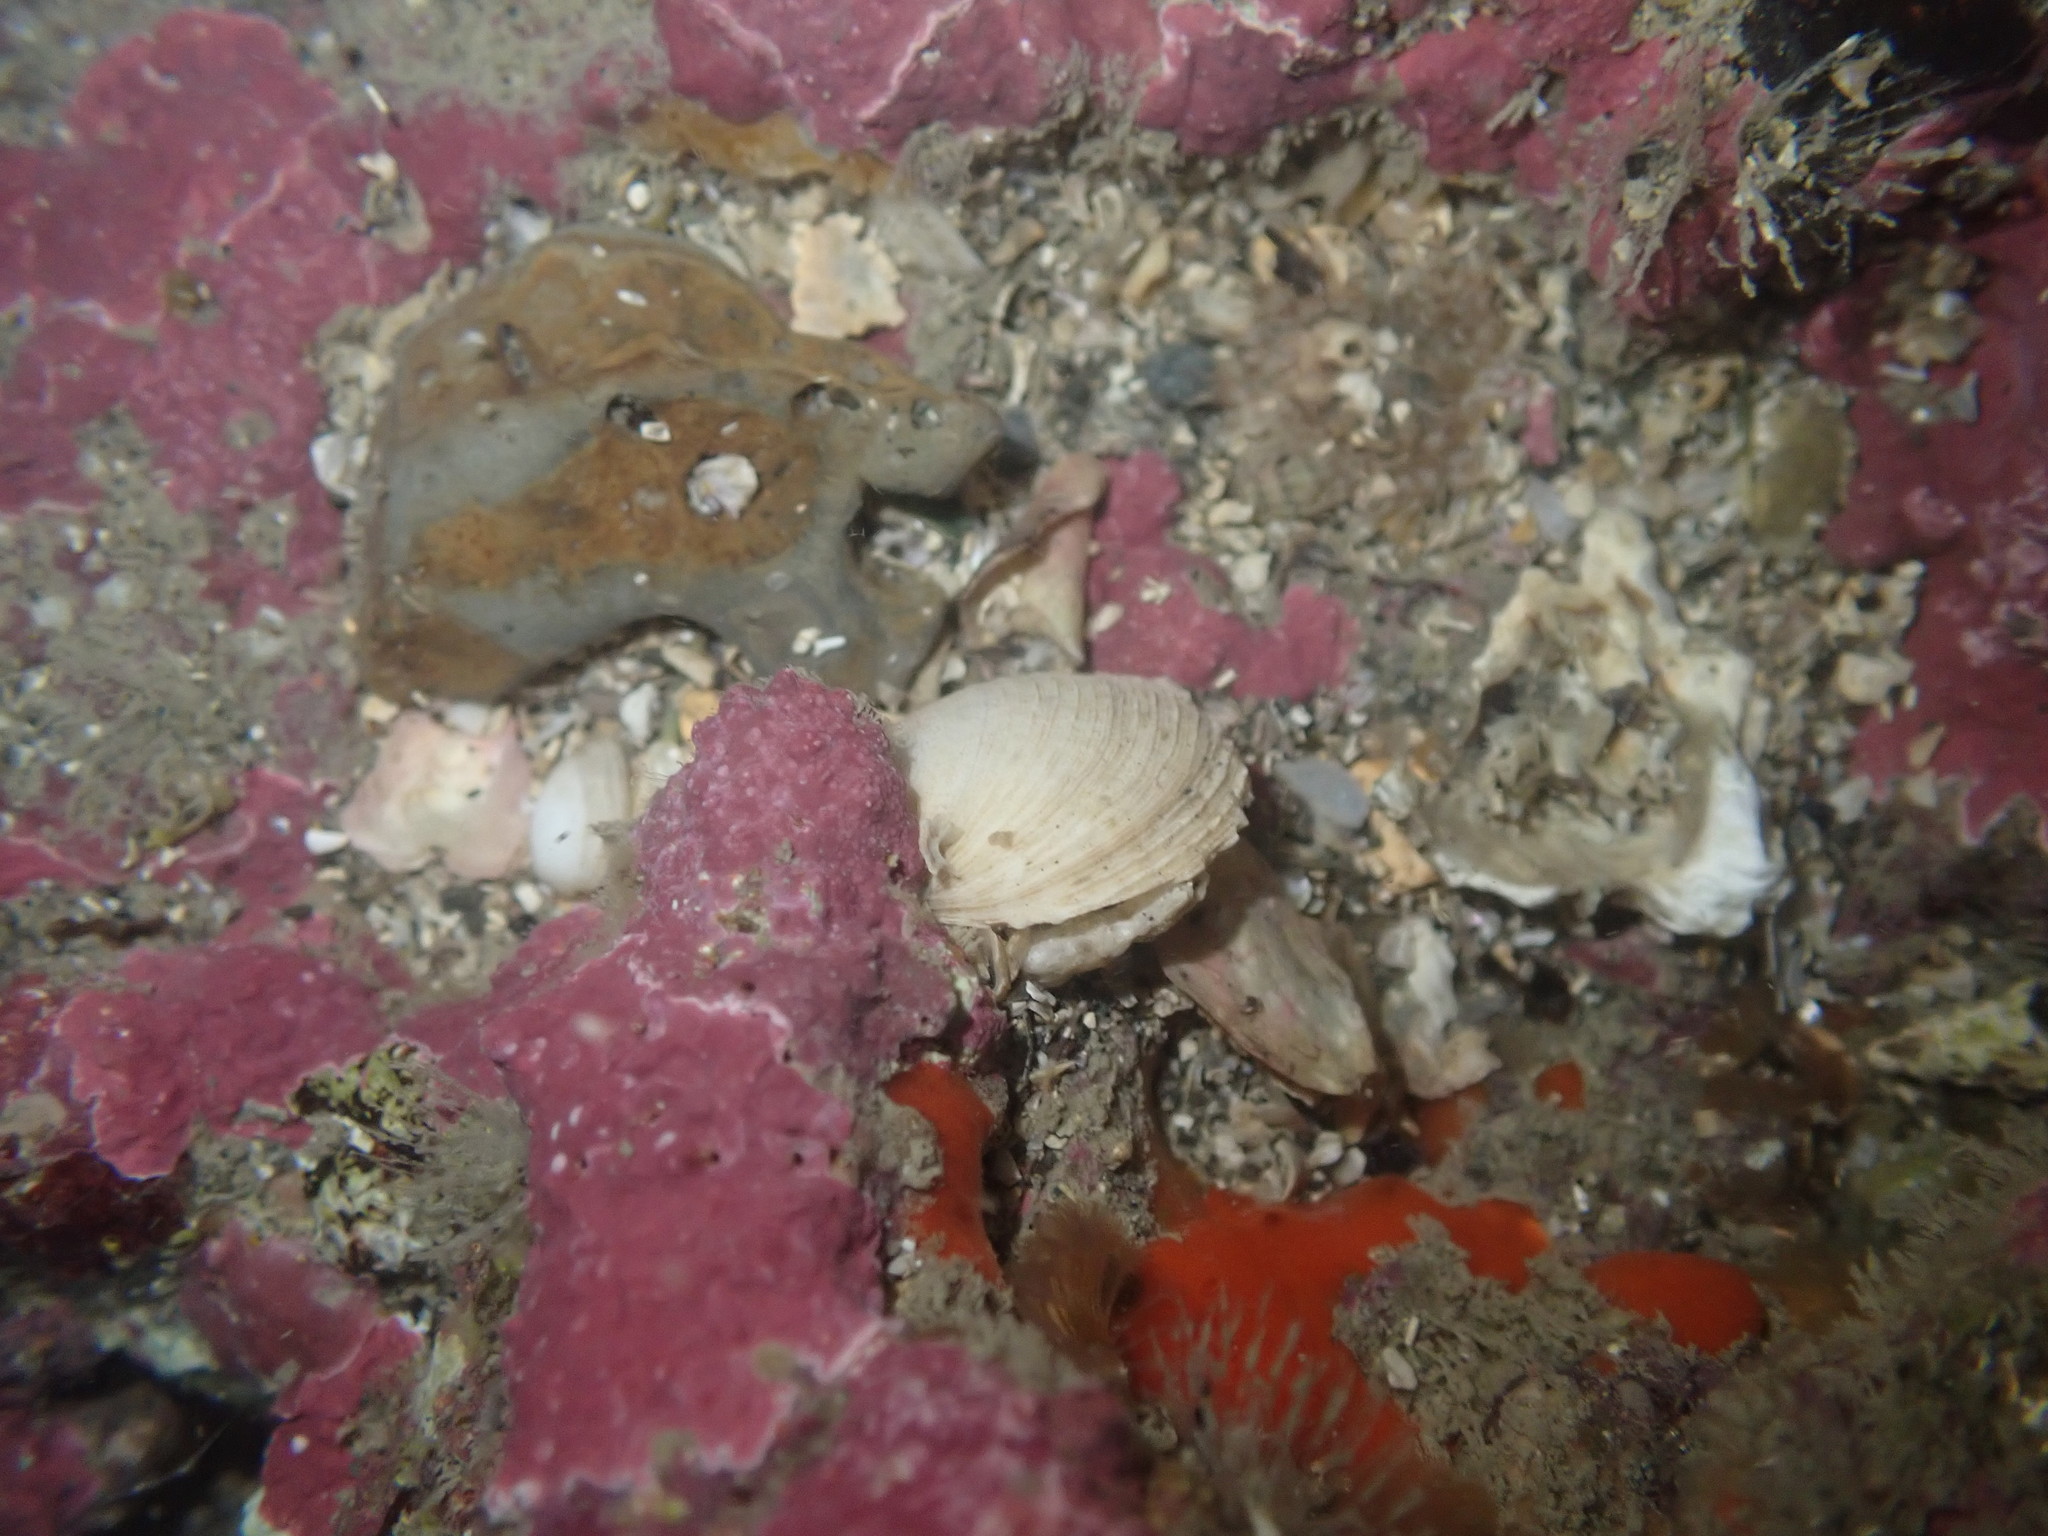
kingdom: Animalia
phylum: Mollusca
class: Bivalvia
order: Venerida
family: Veneridae
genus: Irus
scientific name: Irus reflexus
